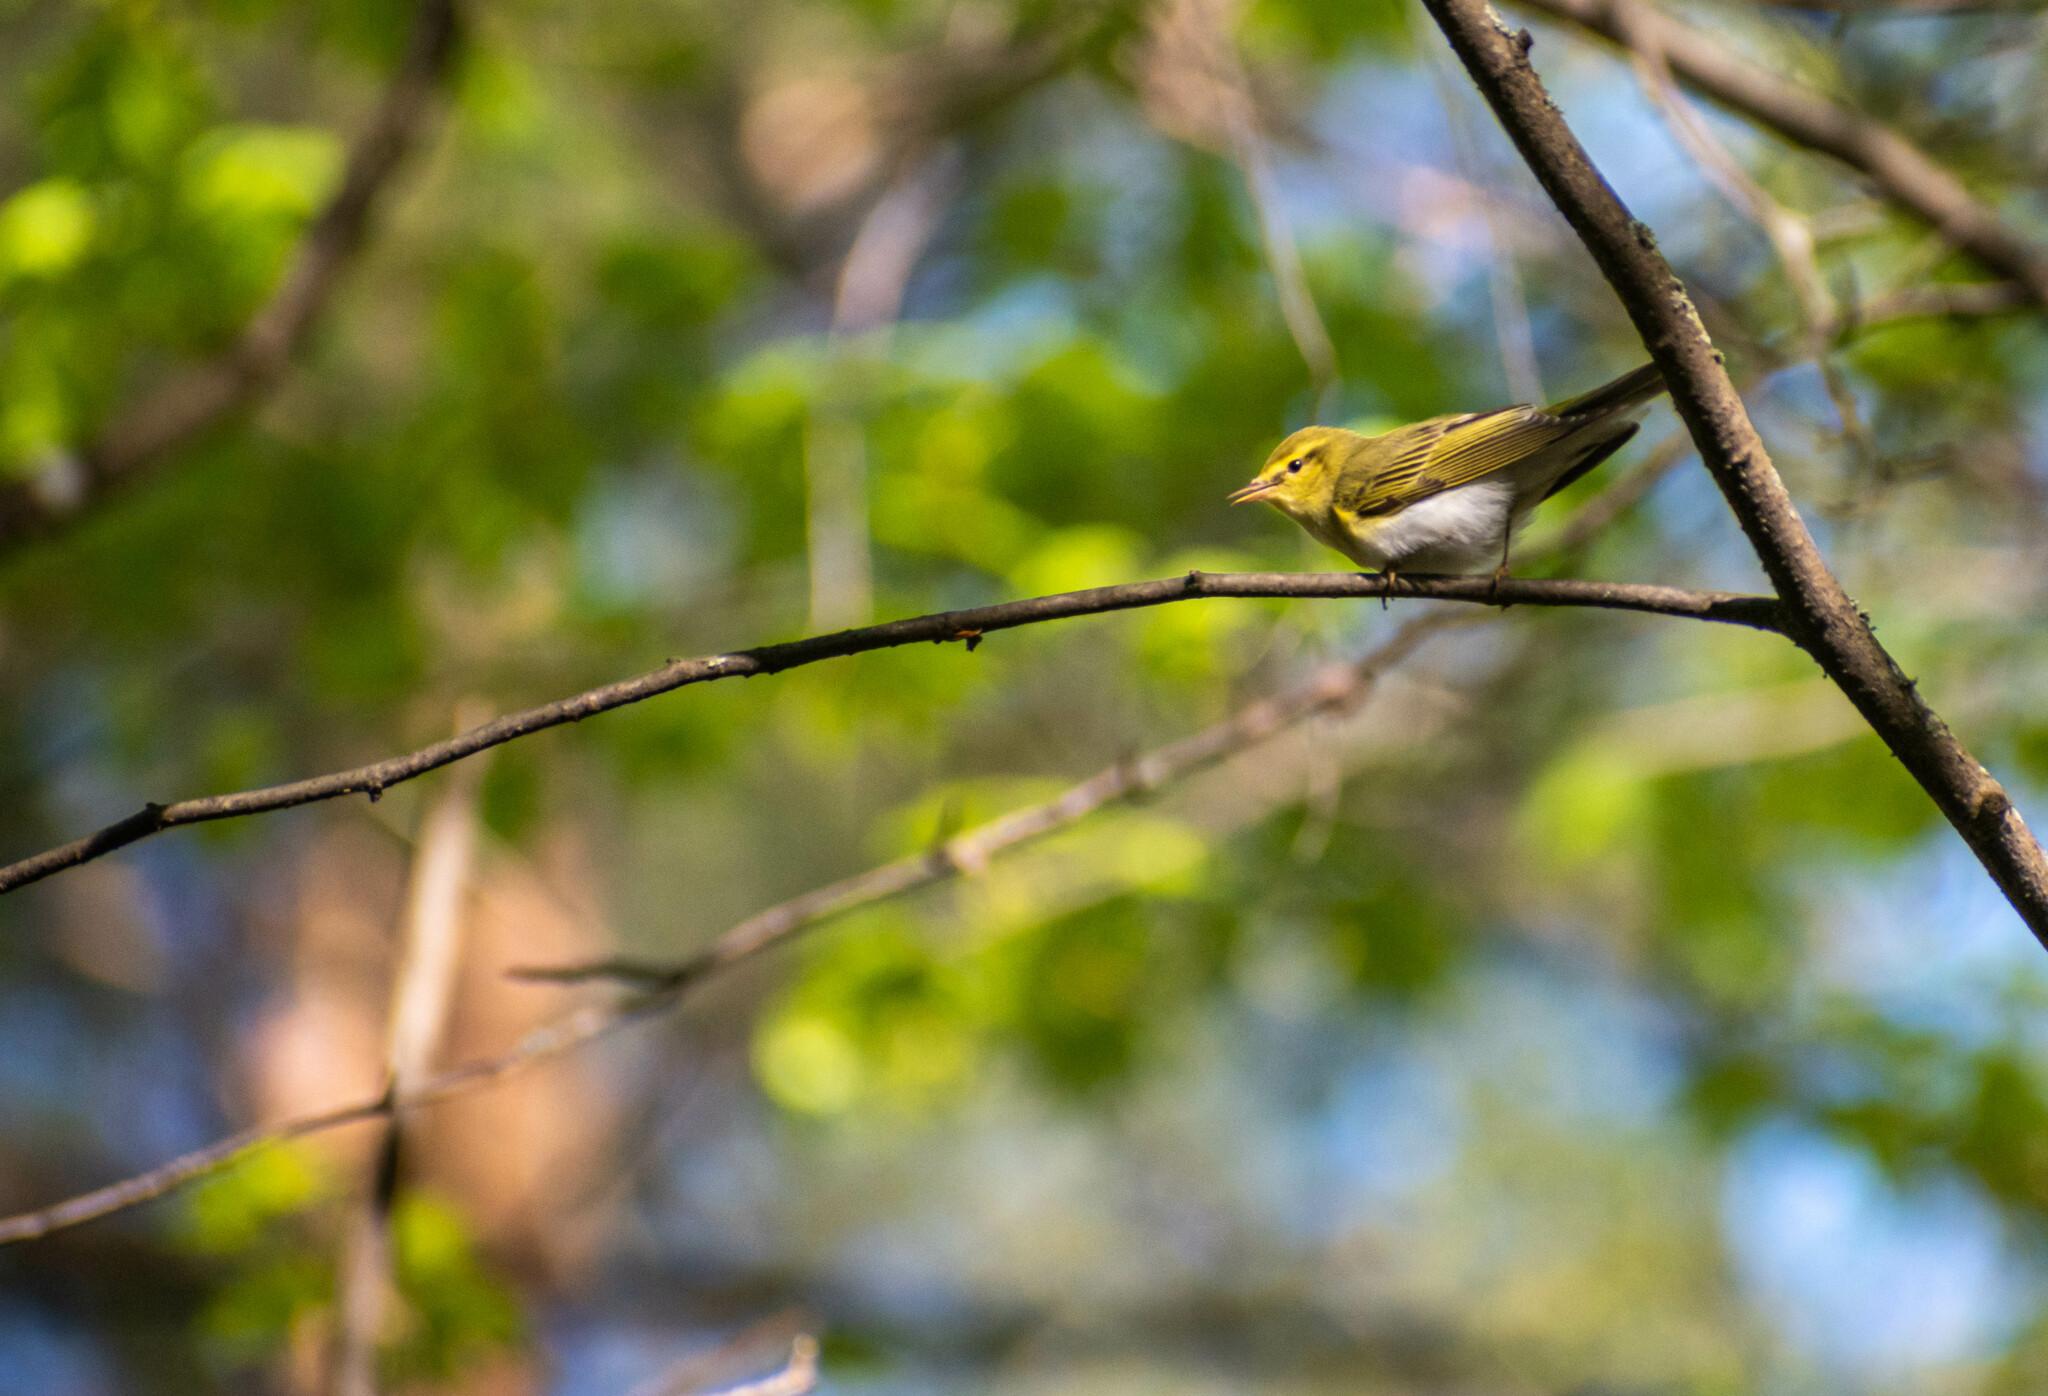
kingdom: Animalia
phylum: Chordata
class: Aves
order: Passeriformes
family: Phylloscopidae
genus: Phylloscopus
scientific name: Phylloscopus sibillatrix
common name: Wood warbler
